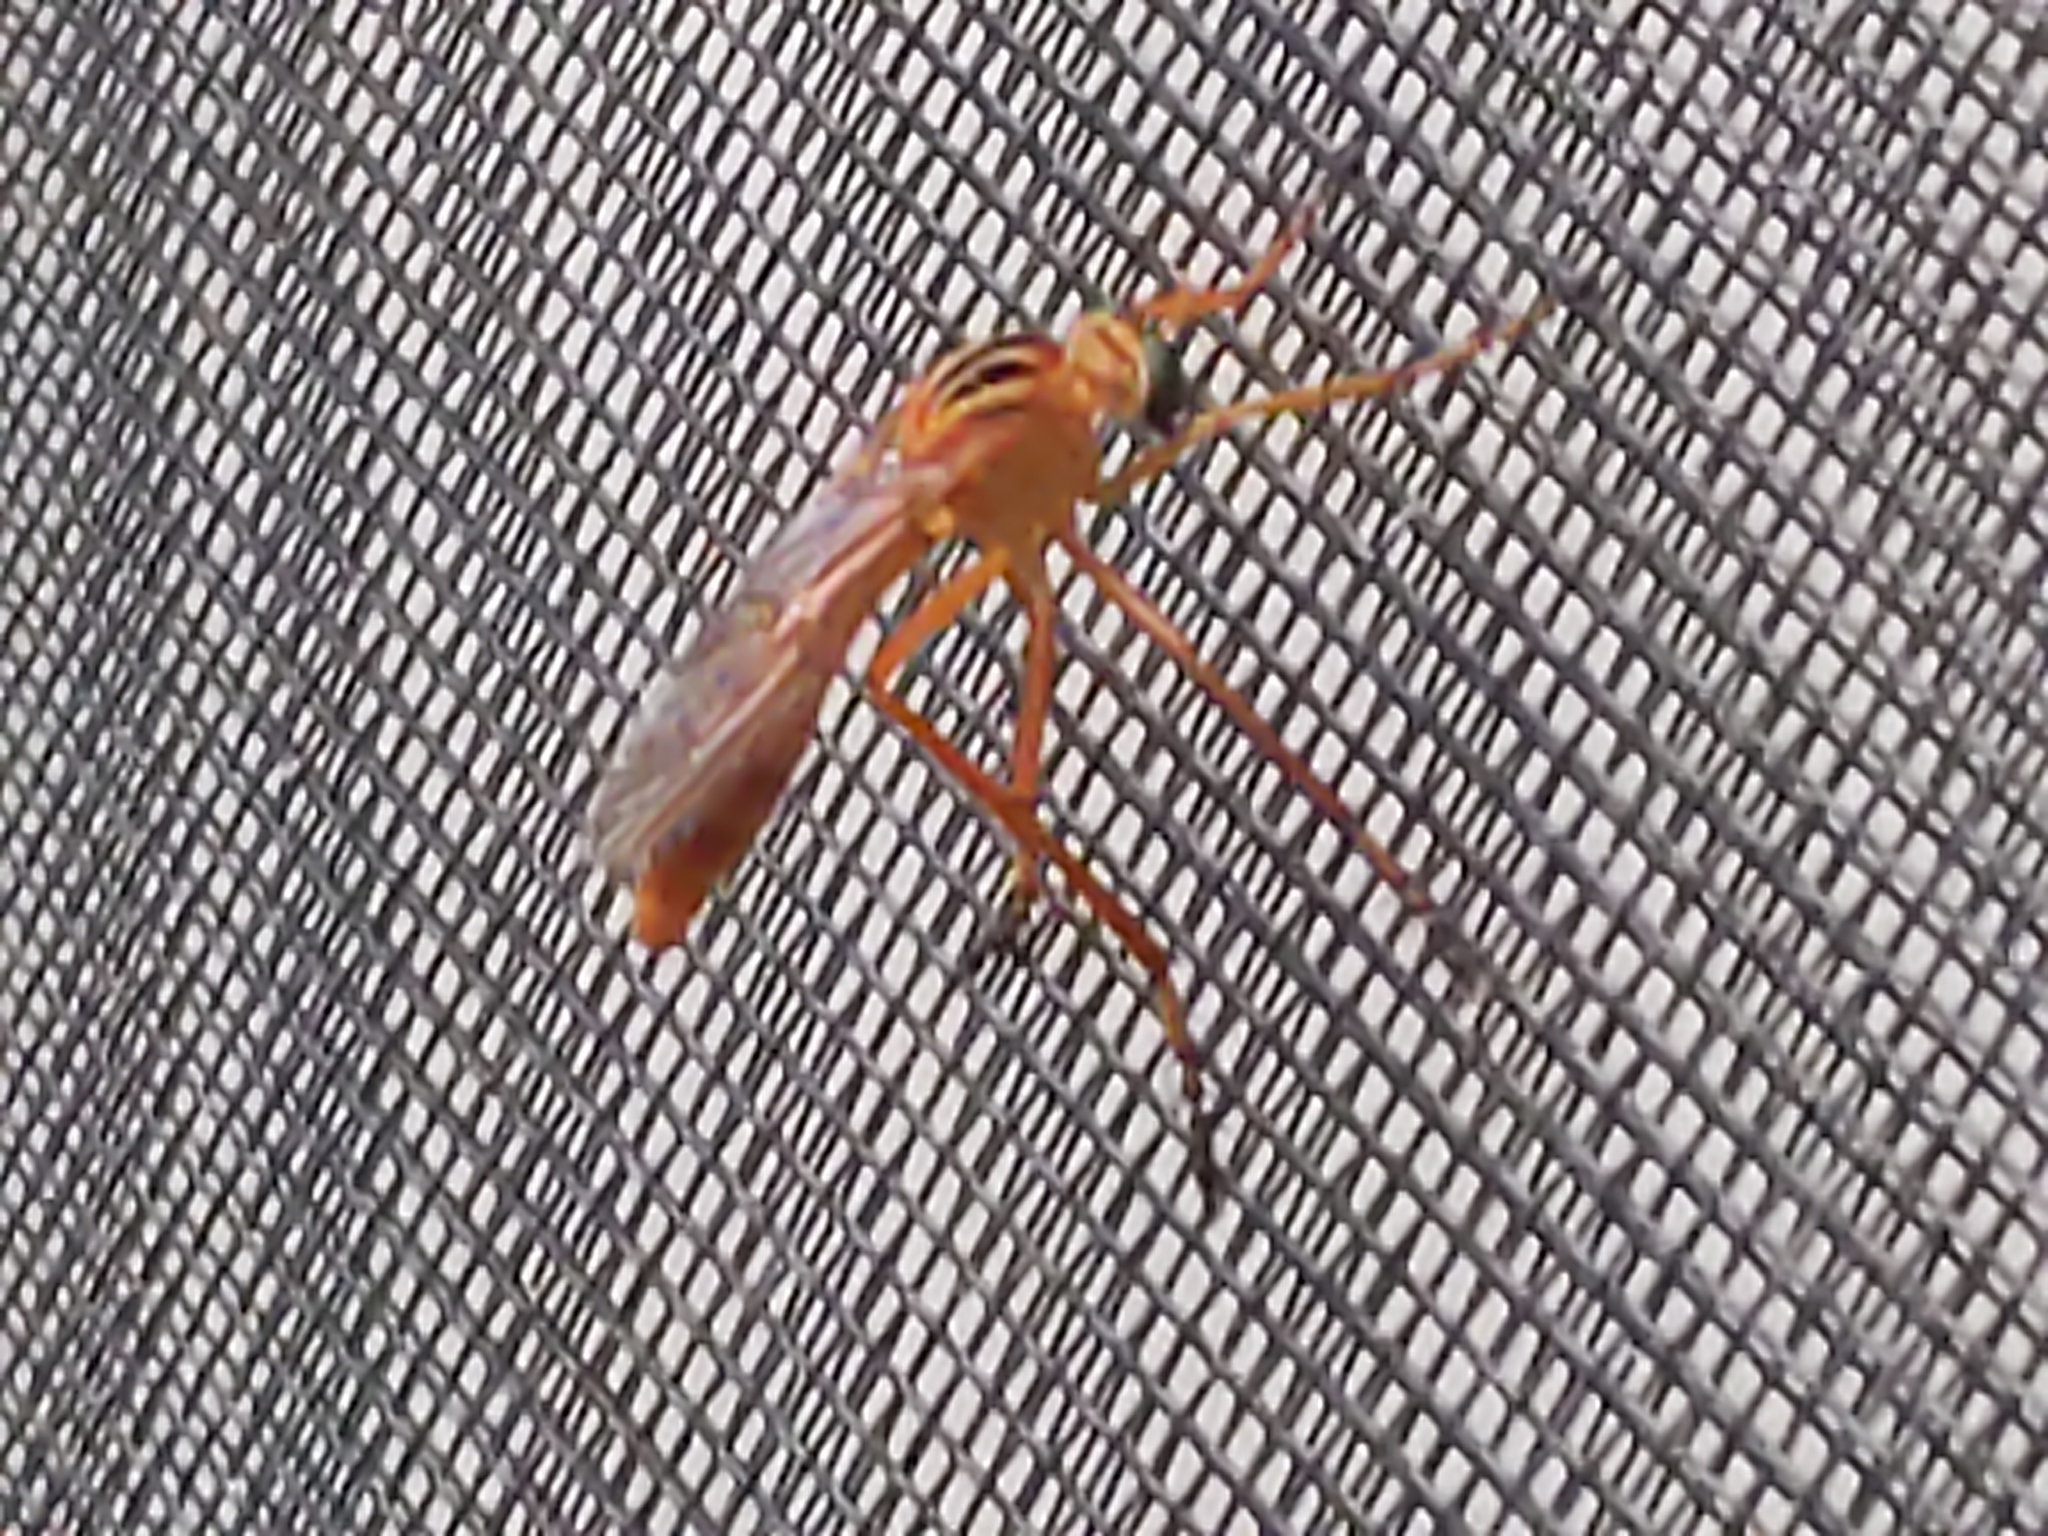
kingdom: Animalia
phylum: Arthropoda
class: Insecta
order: Diptera
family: Asilidae
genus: Diogmites
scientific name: Diogmites
